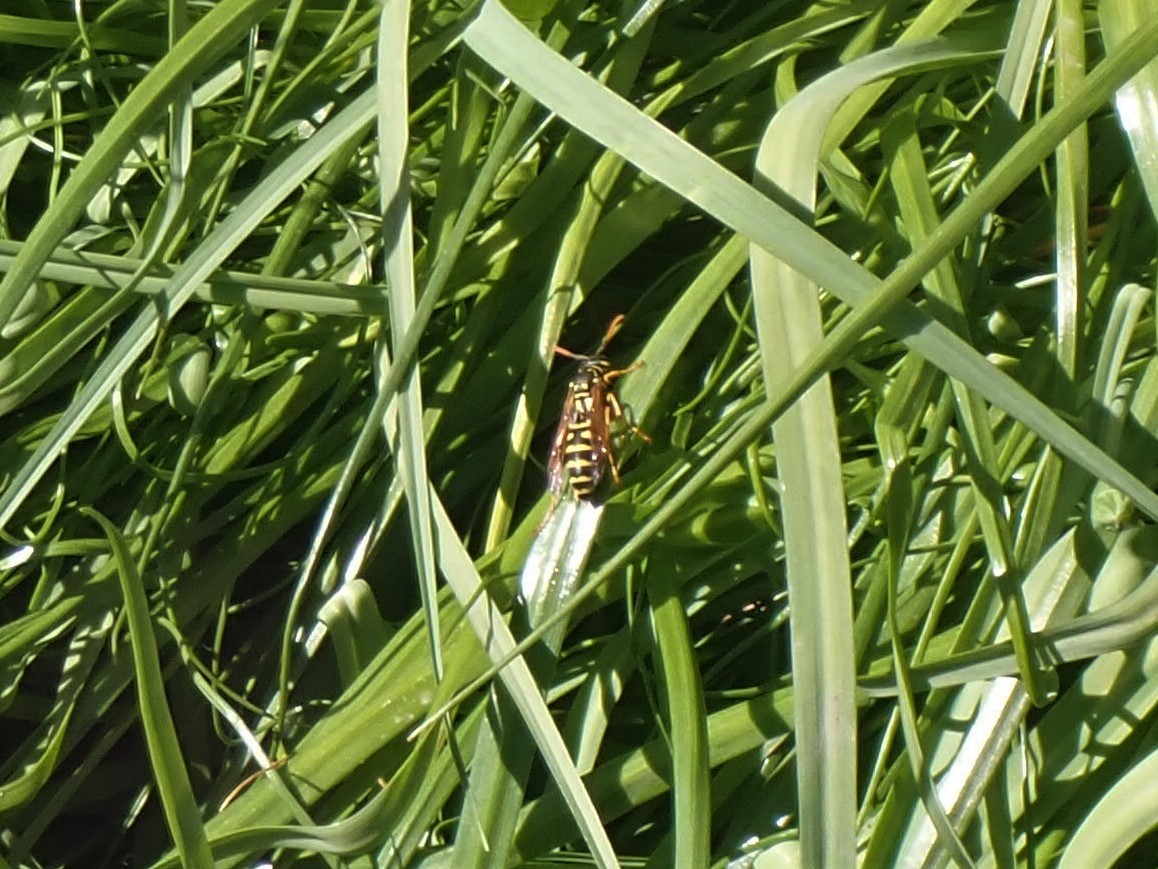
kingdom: Animalia
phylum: Arthropoda
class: Insecta
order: Hymenoptera
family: Eumenidae
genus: Polistes
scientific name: Polistes dominula
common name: Paper wasp
